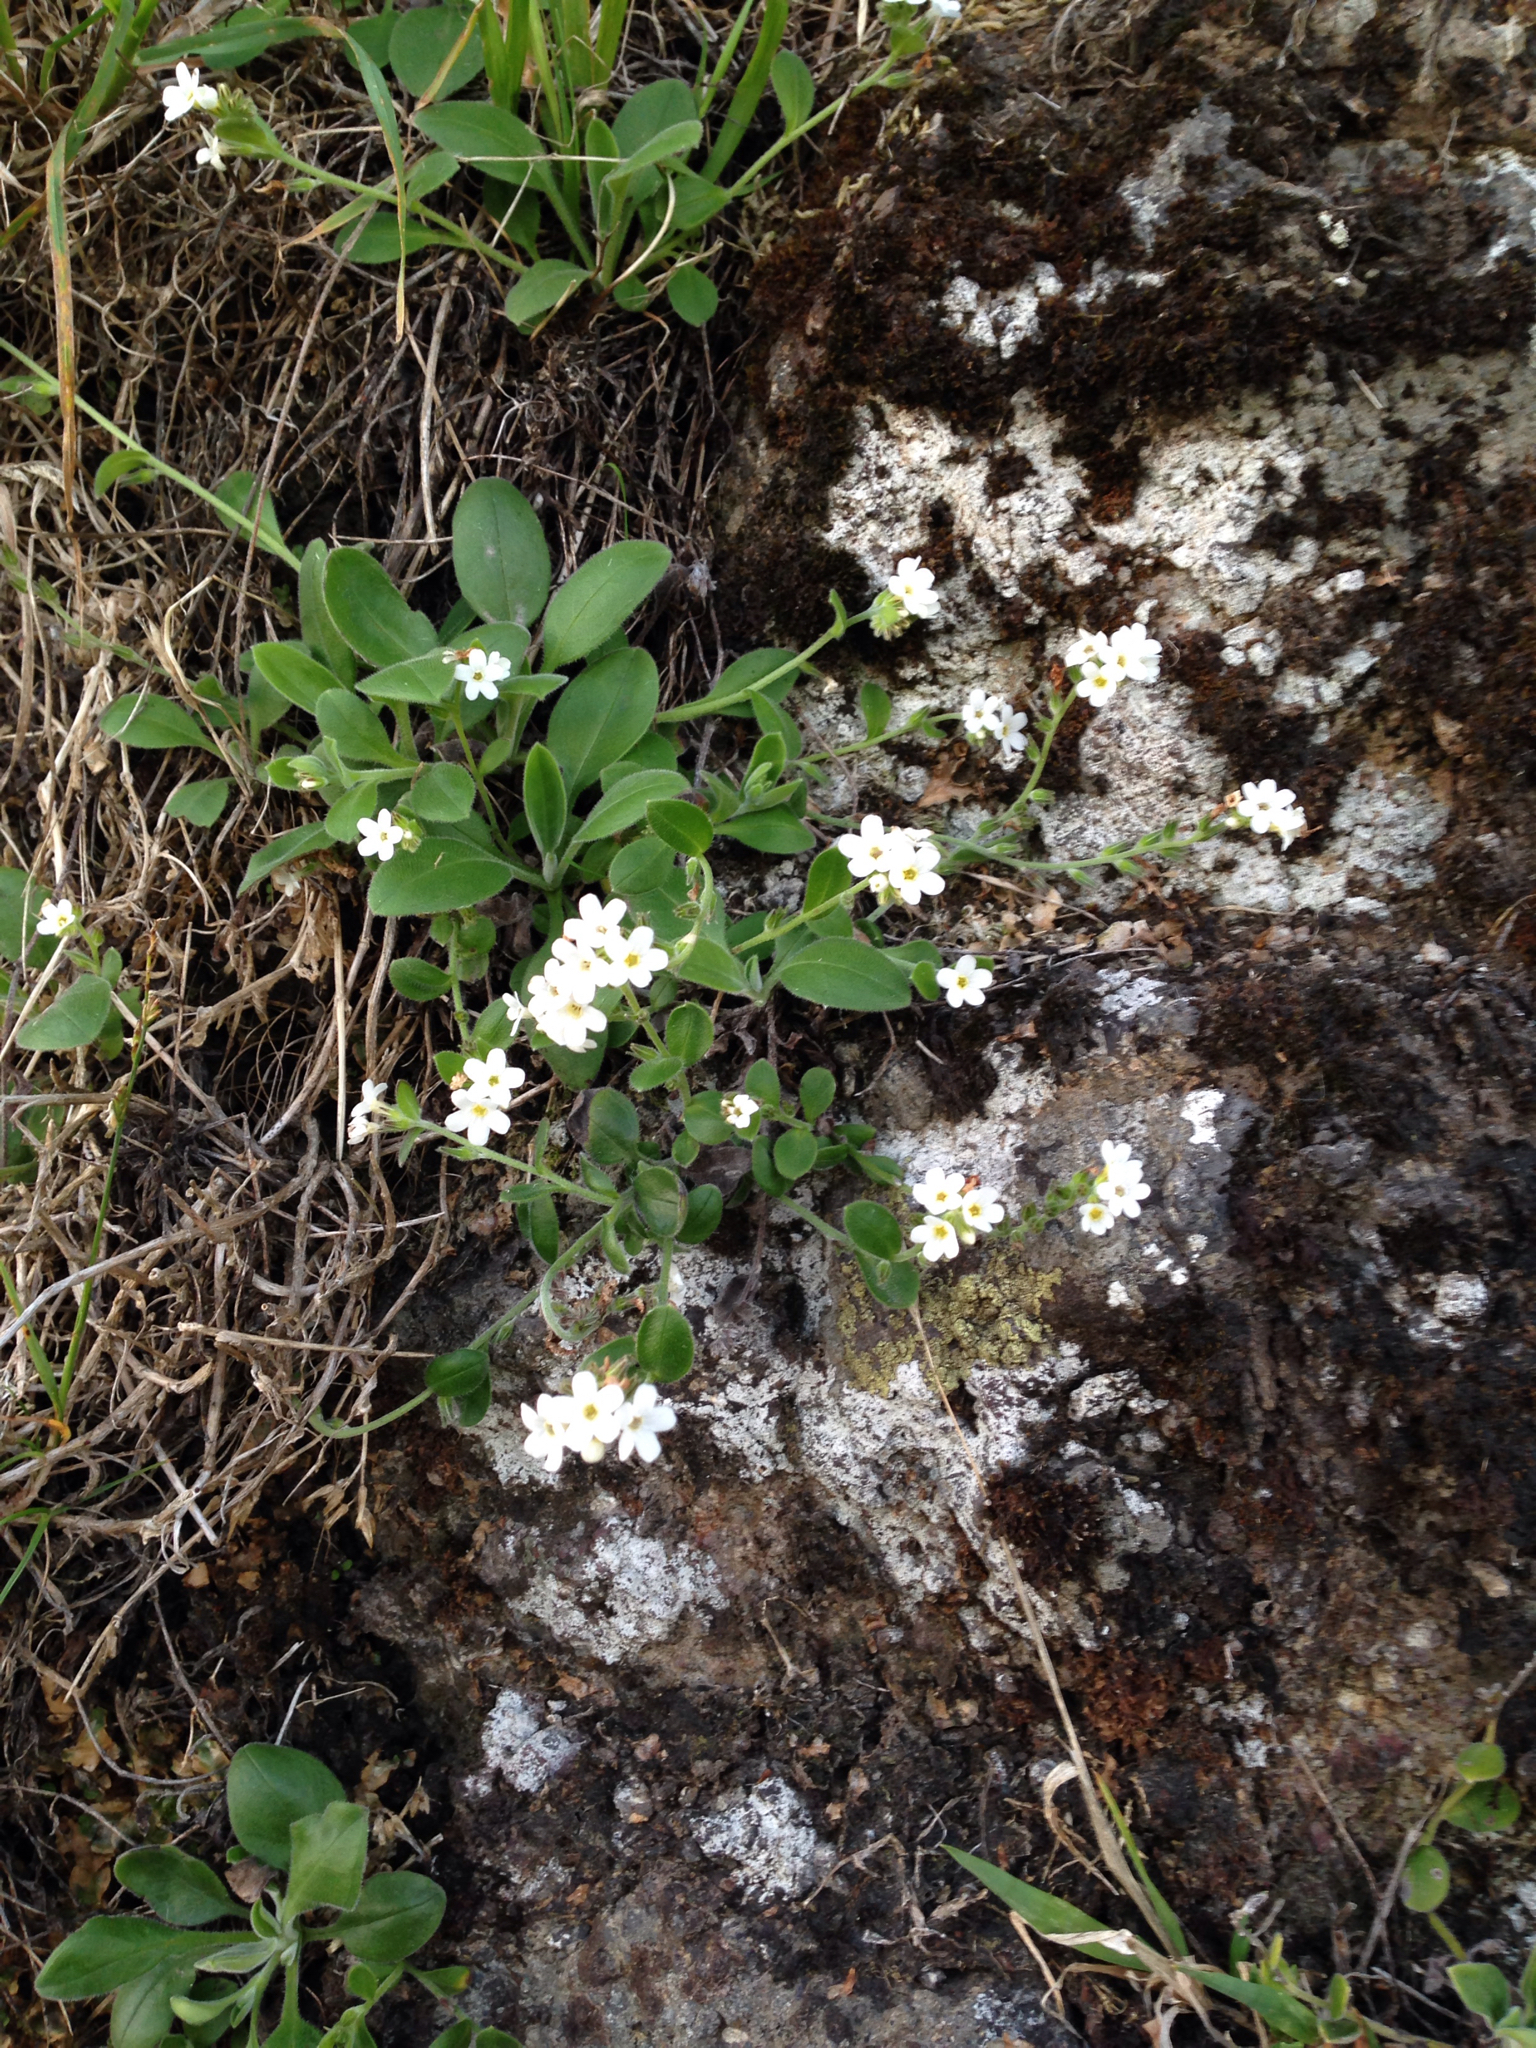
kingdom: Plantae
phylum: Tracheophyta
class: Magnoliopsida
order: Boraginales
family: Boraginaceae
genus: Myosotis
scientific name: Myosotis australis
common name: Australian forget-me-not
